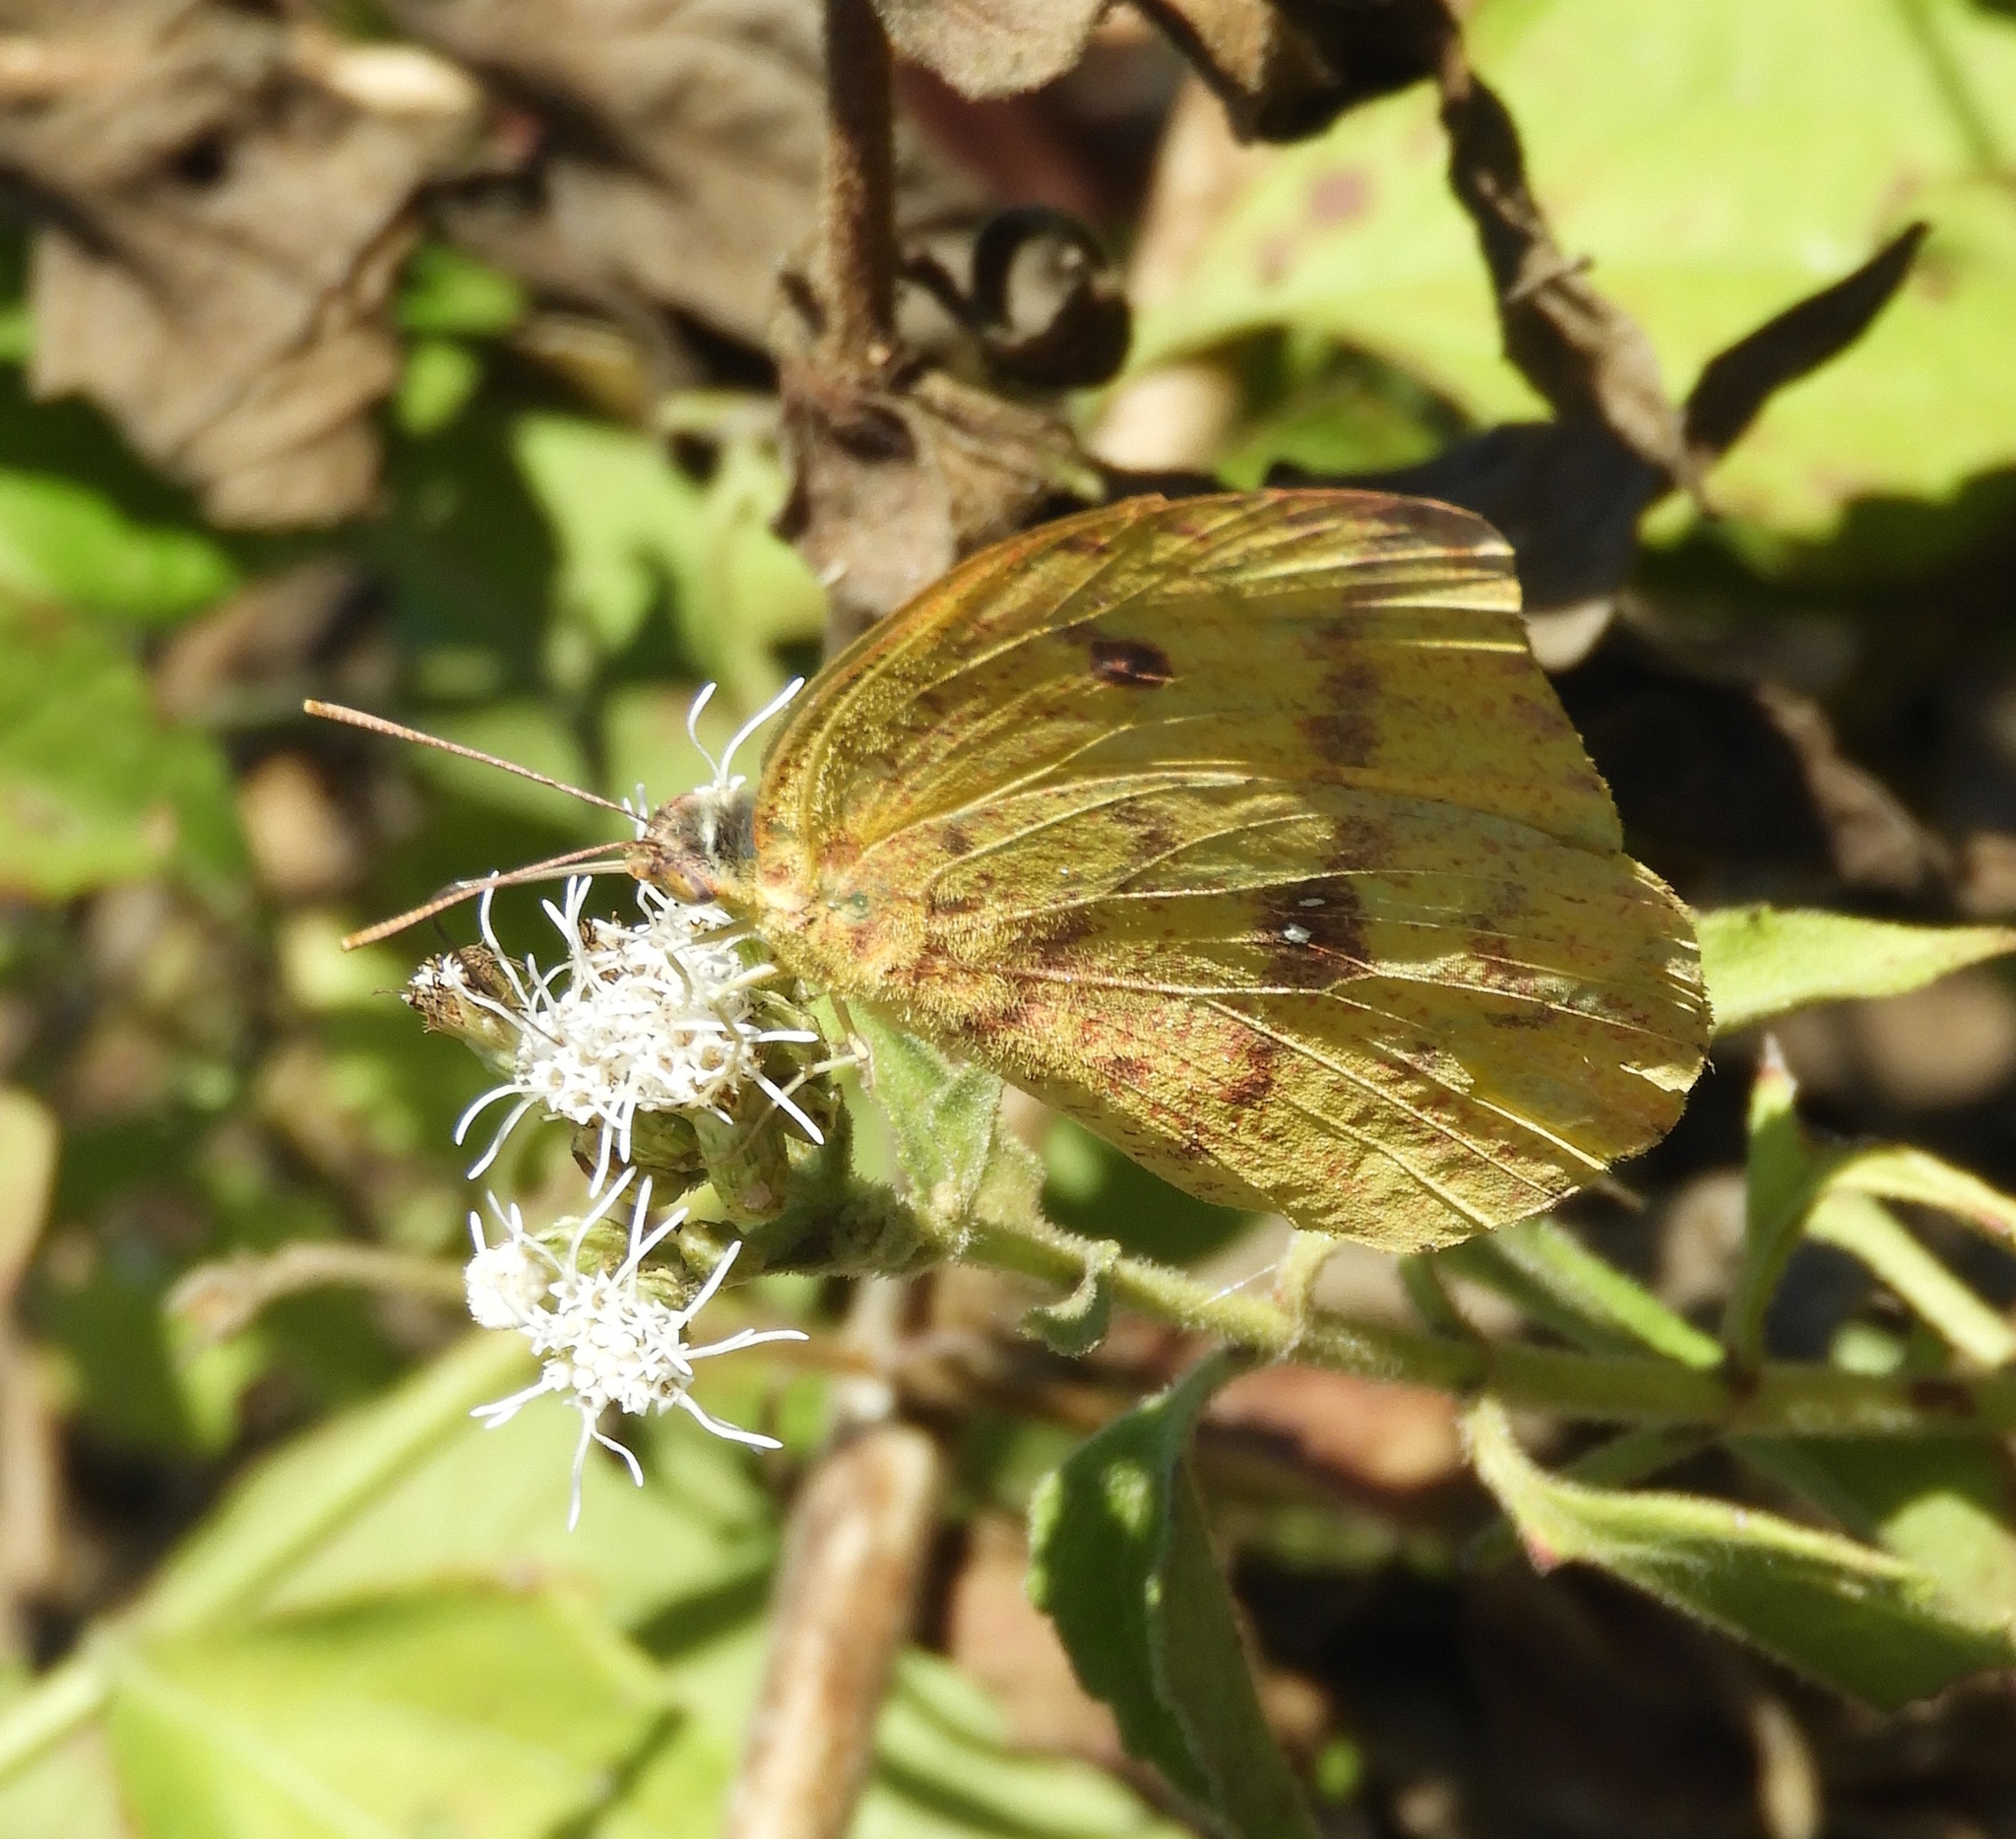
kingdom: Animalia
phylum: Arthropoda
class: Insecta
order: Lepidoptera
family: Pieridae
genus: Phoebis
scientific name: Phoebis agarithe
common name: Large orange sulphur
